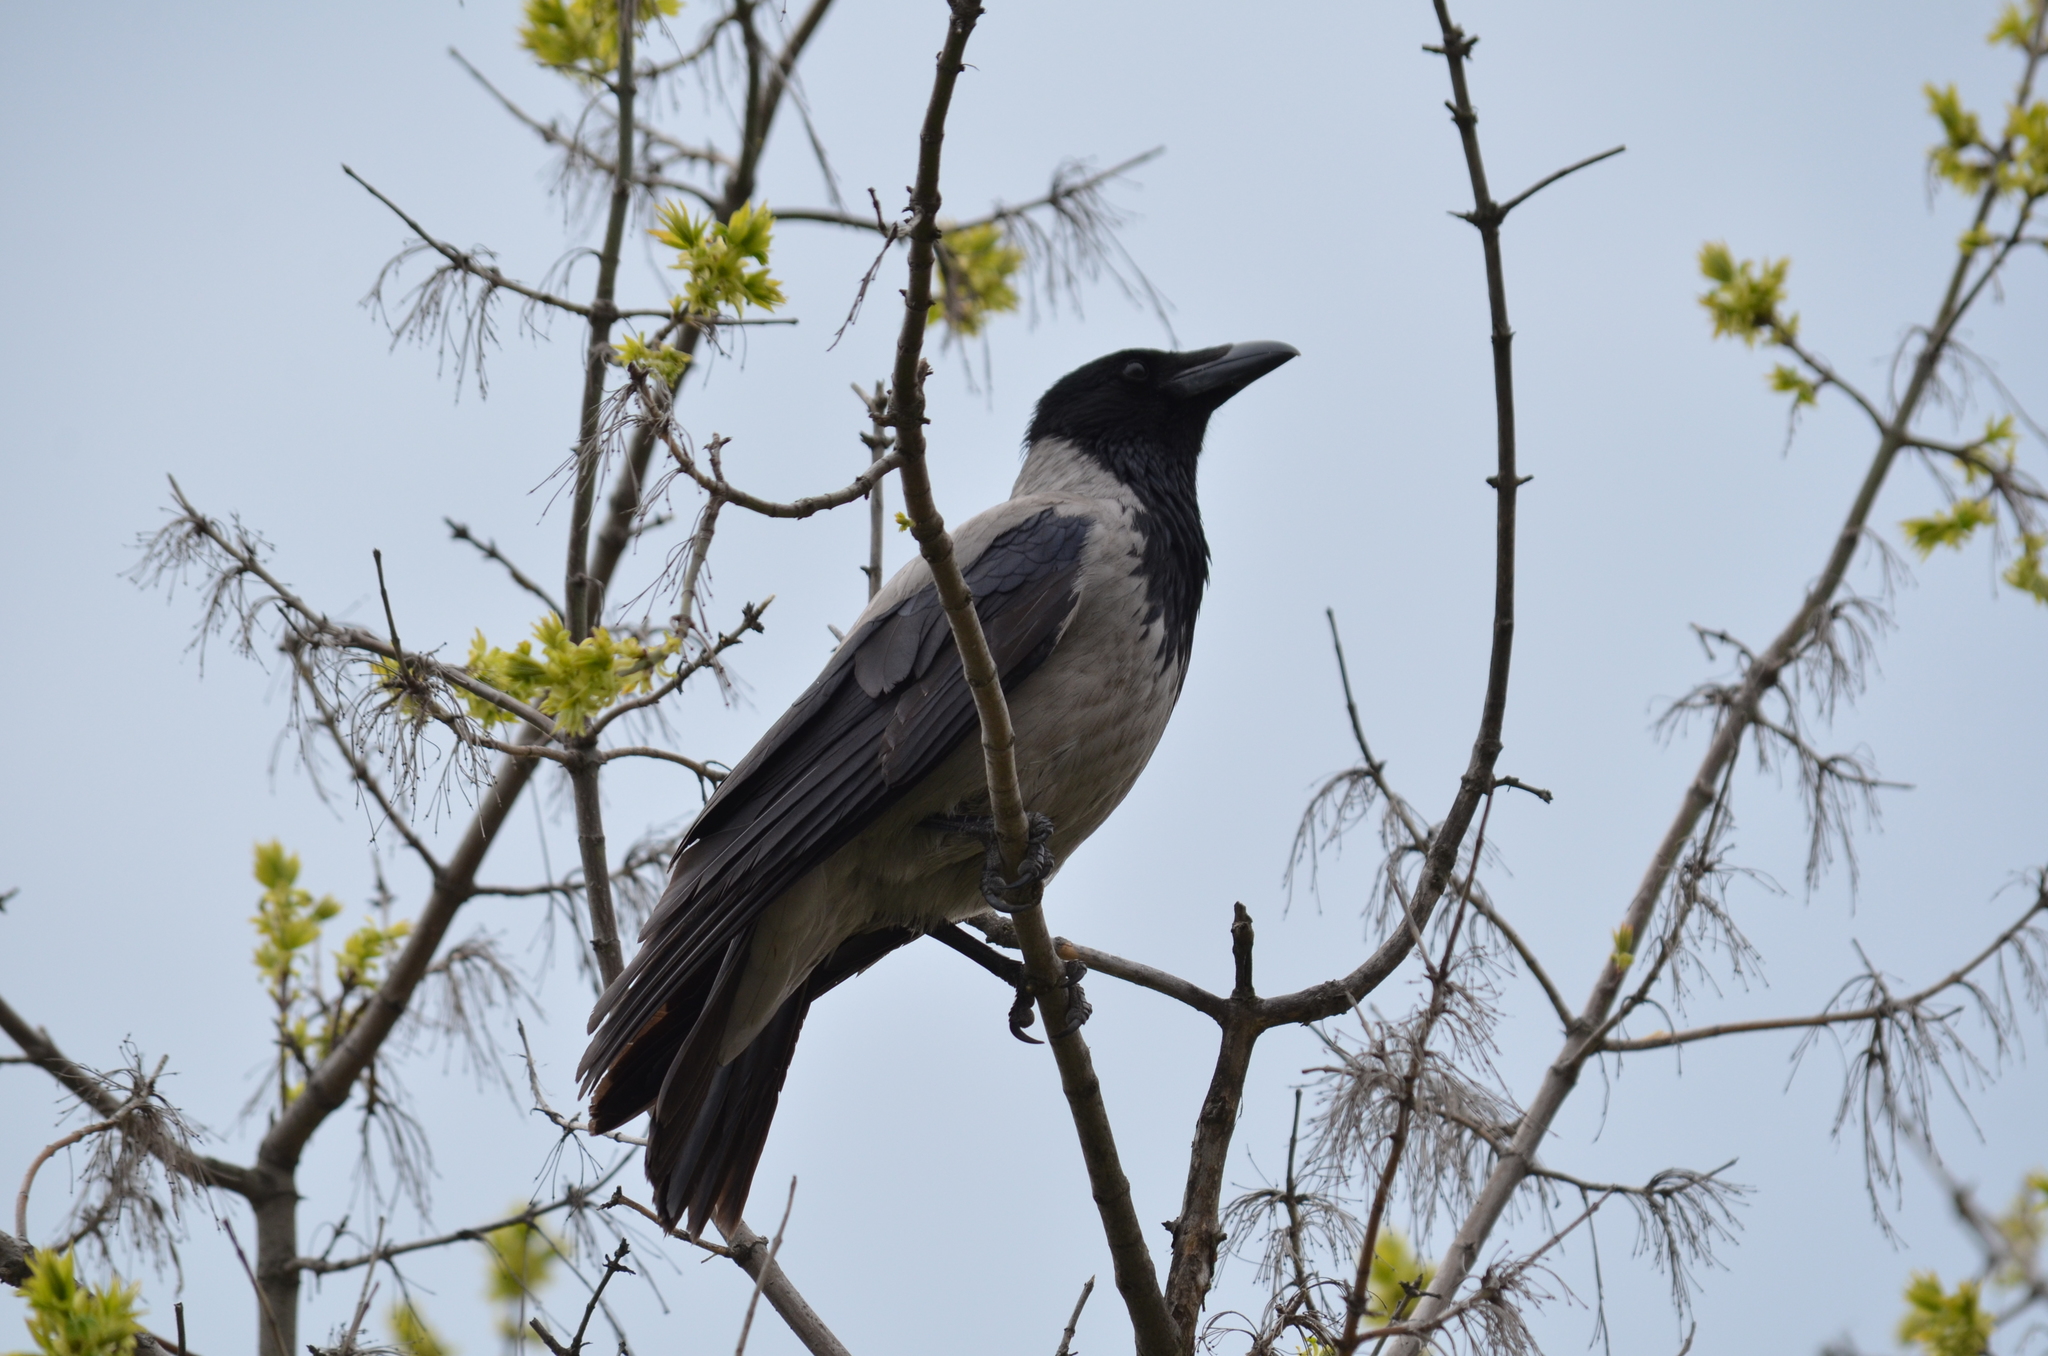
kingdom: Animalia
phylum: Chordata
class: Aves
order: Passeriformes
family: Corvidae
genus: Corvus
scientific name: Corvus cornix
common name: Hooded crow
